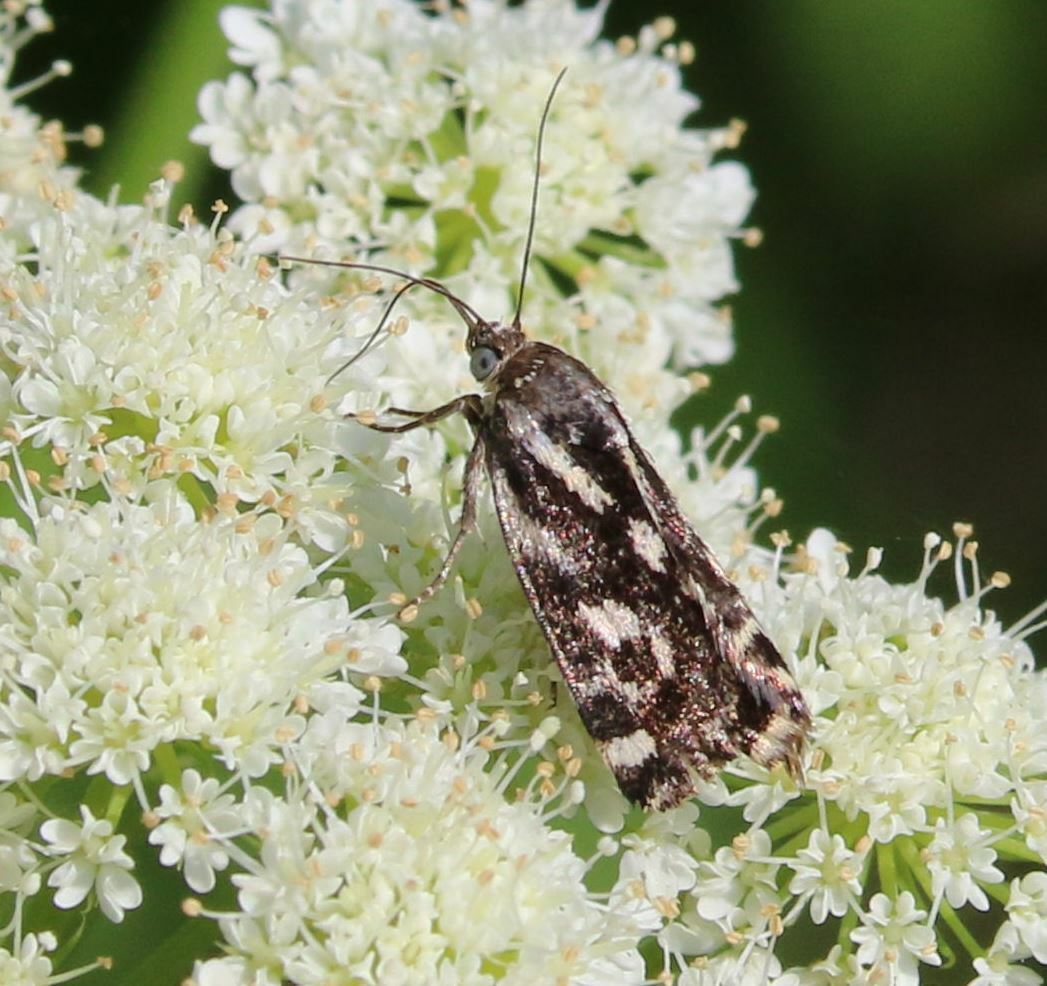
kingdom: Animalia
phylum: Arthropoda
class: Insecta
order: Lepidoptera
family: Noctuidae
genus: Acontia
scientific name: Acontia trabealis
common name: Spotted sulphur
